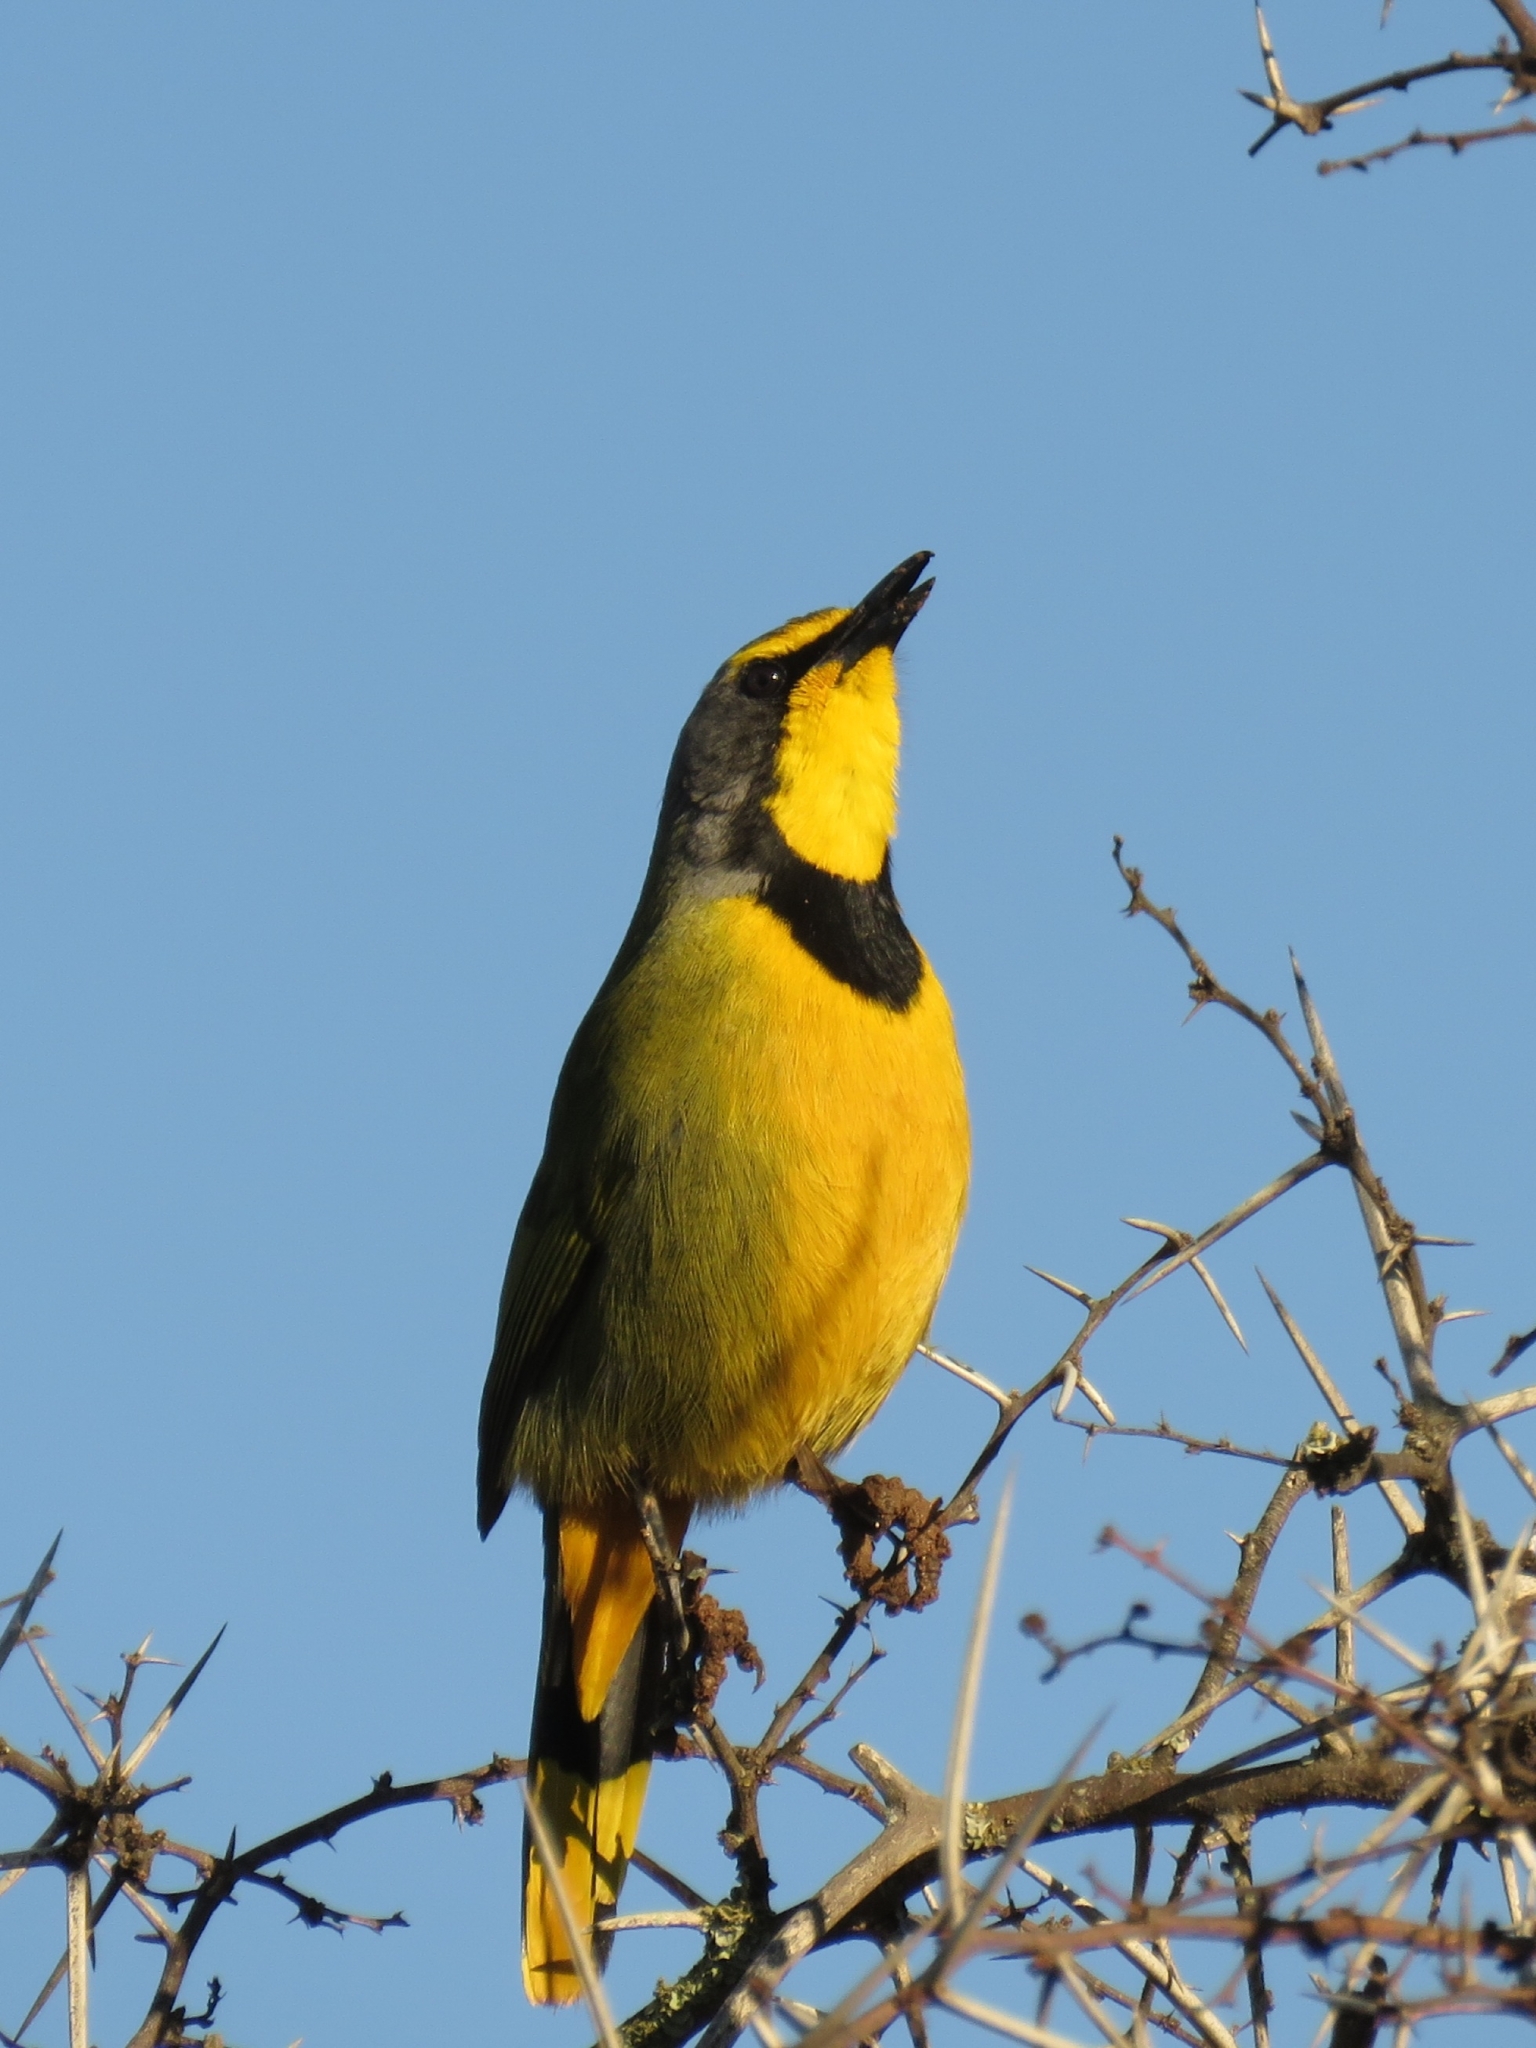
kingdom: Animalia
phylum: Chordata
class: Aves
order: Passeriformes
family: Malaconotidae
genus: Telophorus
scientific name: Telophorus zeylonus
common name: Bokmakierie
